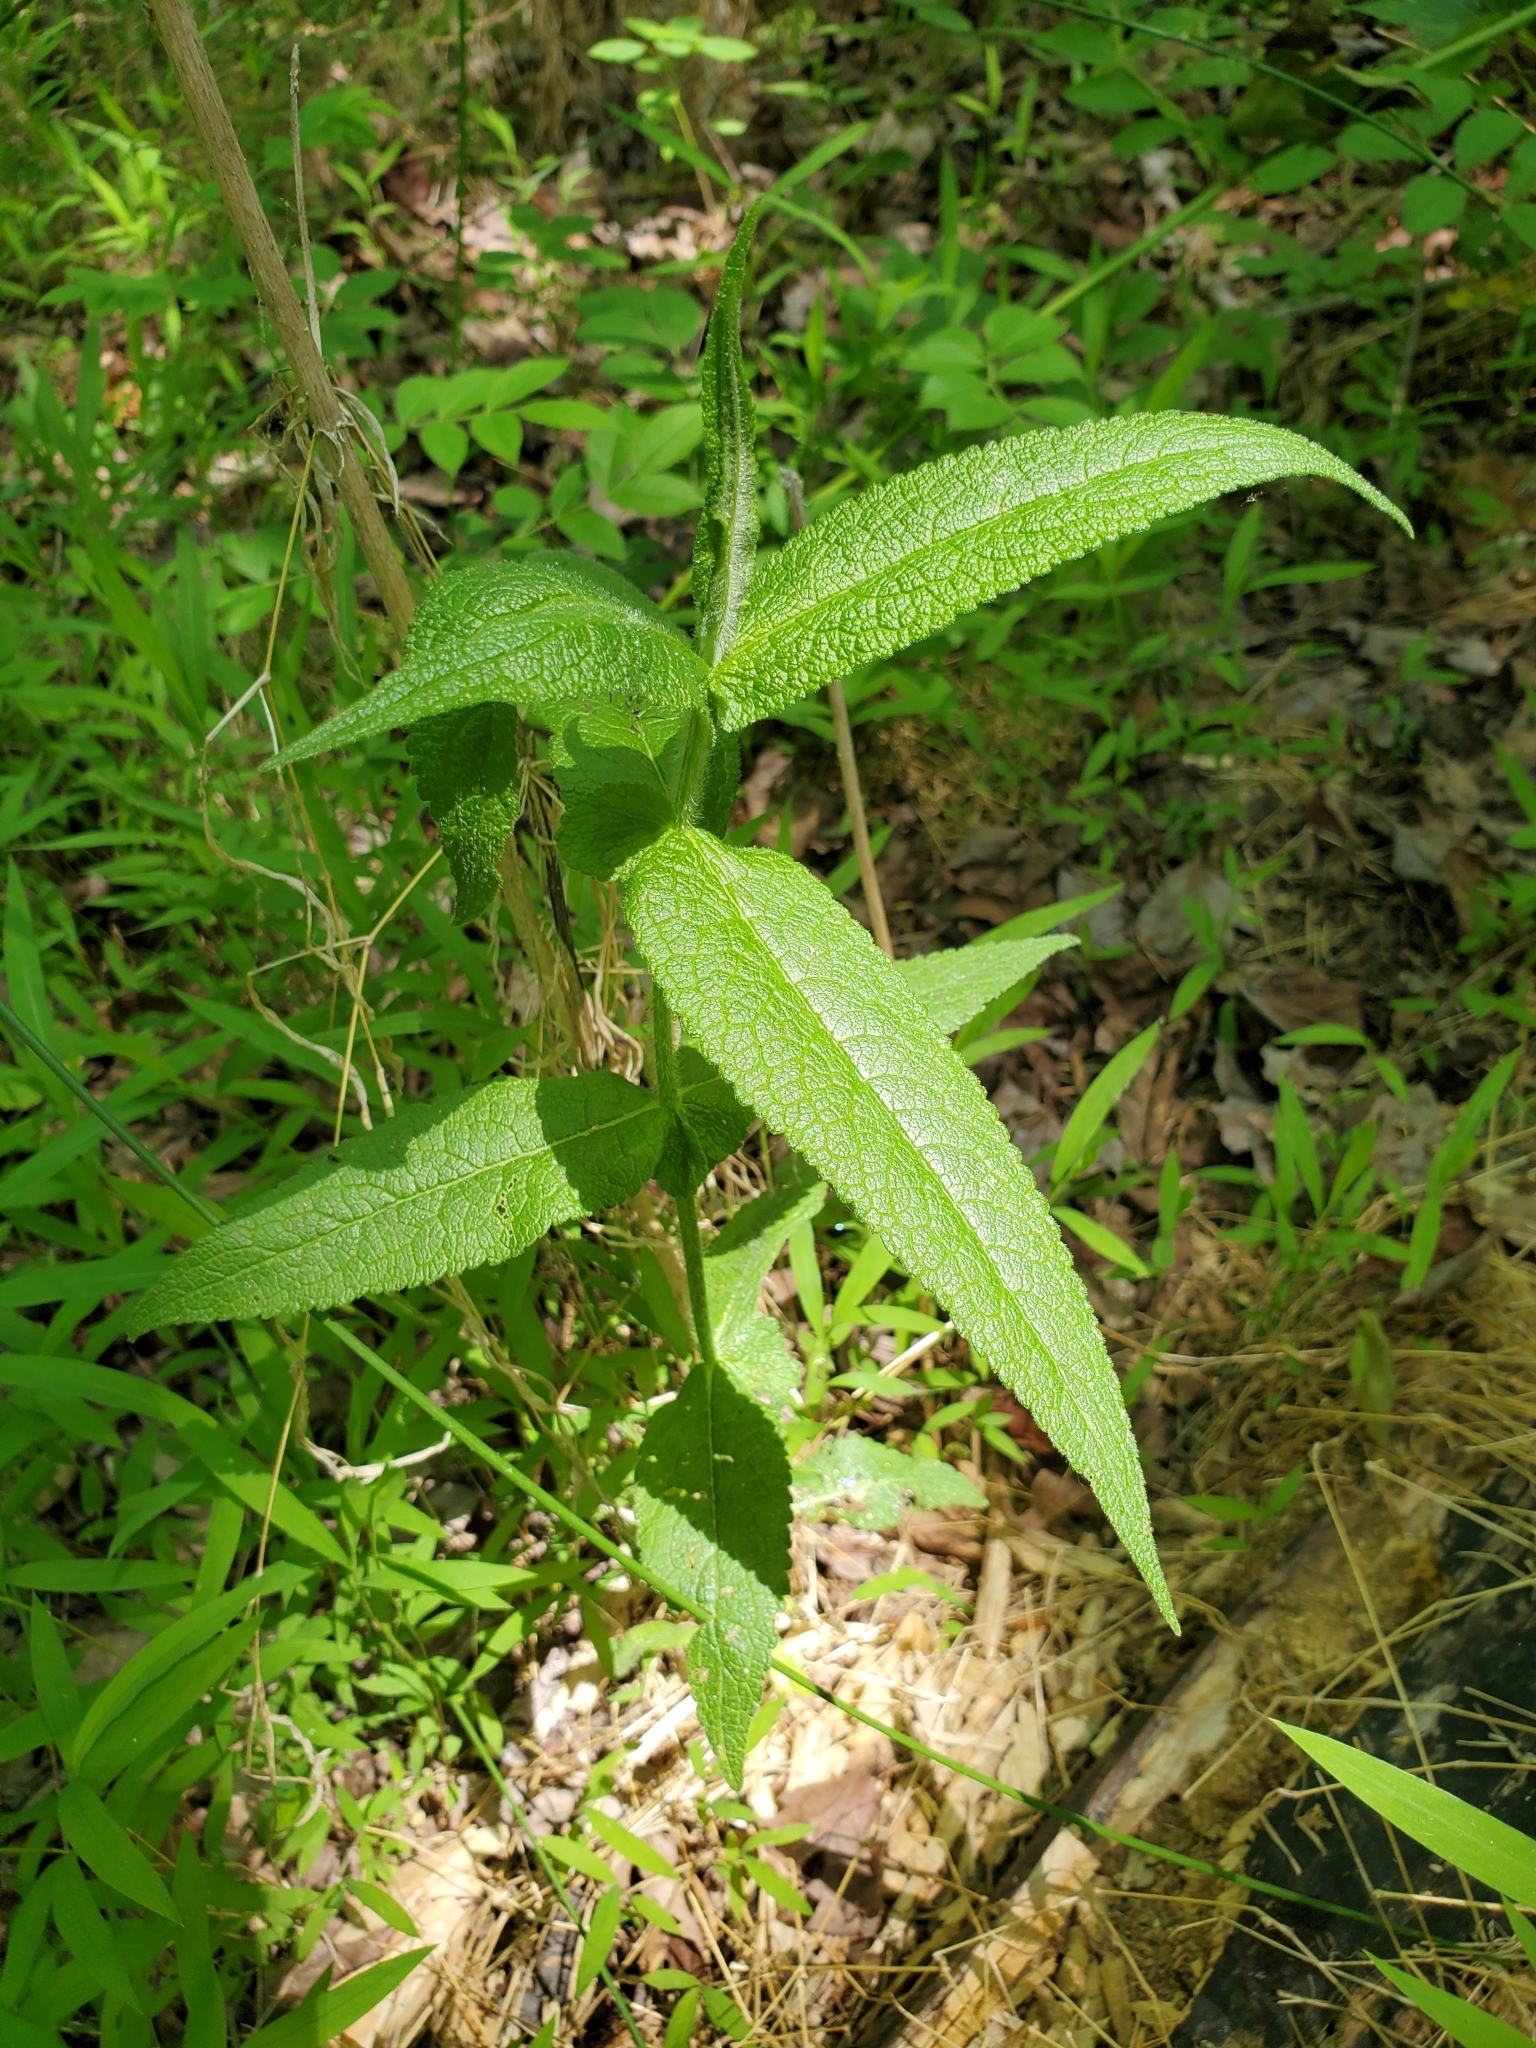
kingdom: Plantae
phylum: Tracheophyta
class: Magnoliopsida
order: Asterales
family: Asteraceae
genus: Eupatorium
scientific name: Eupatorium perfoliatum
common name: Boneset
